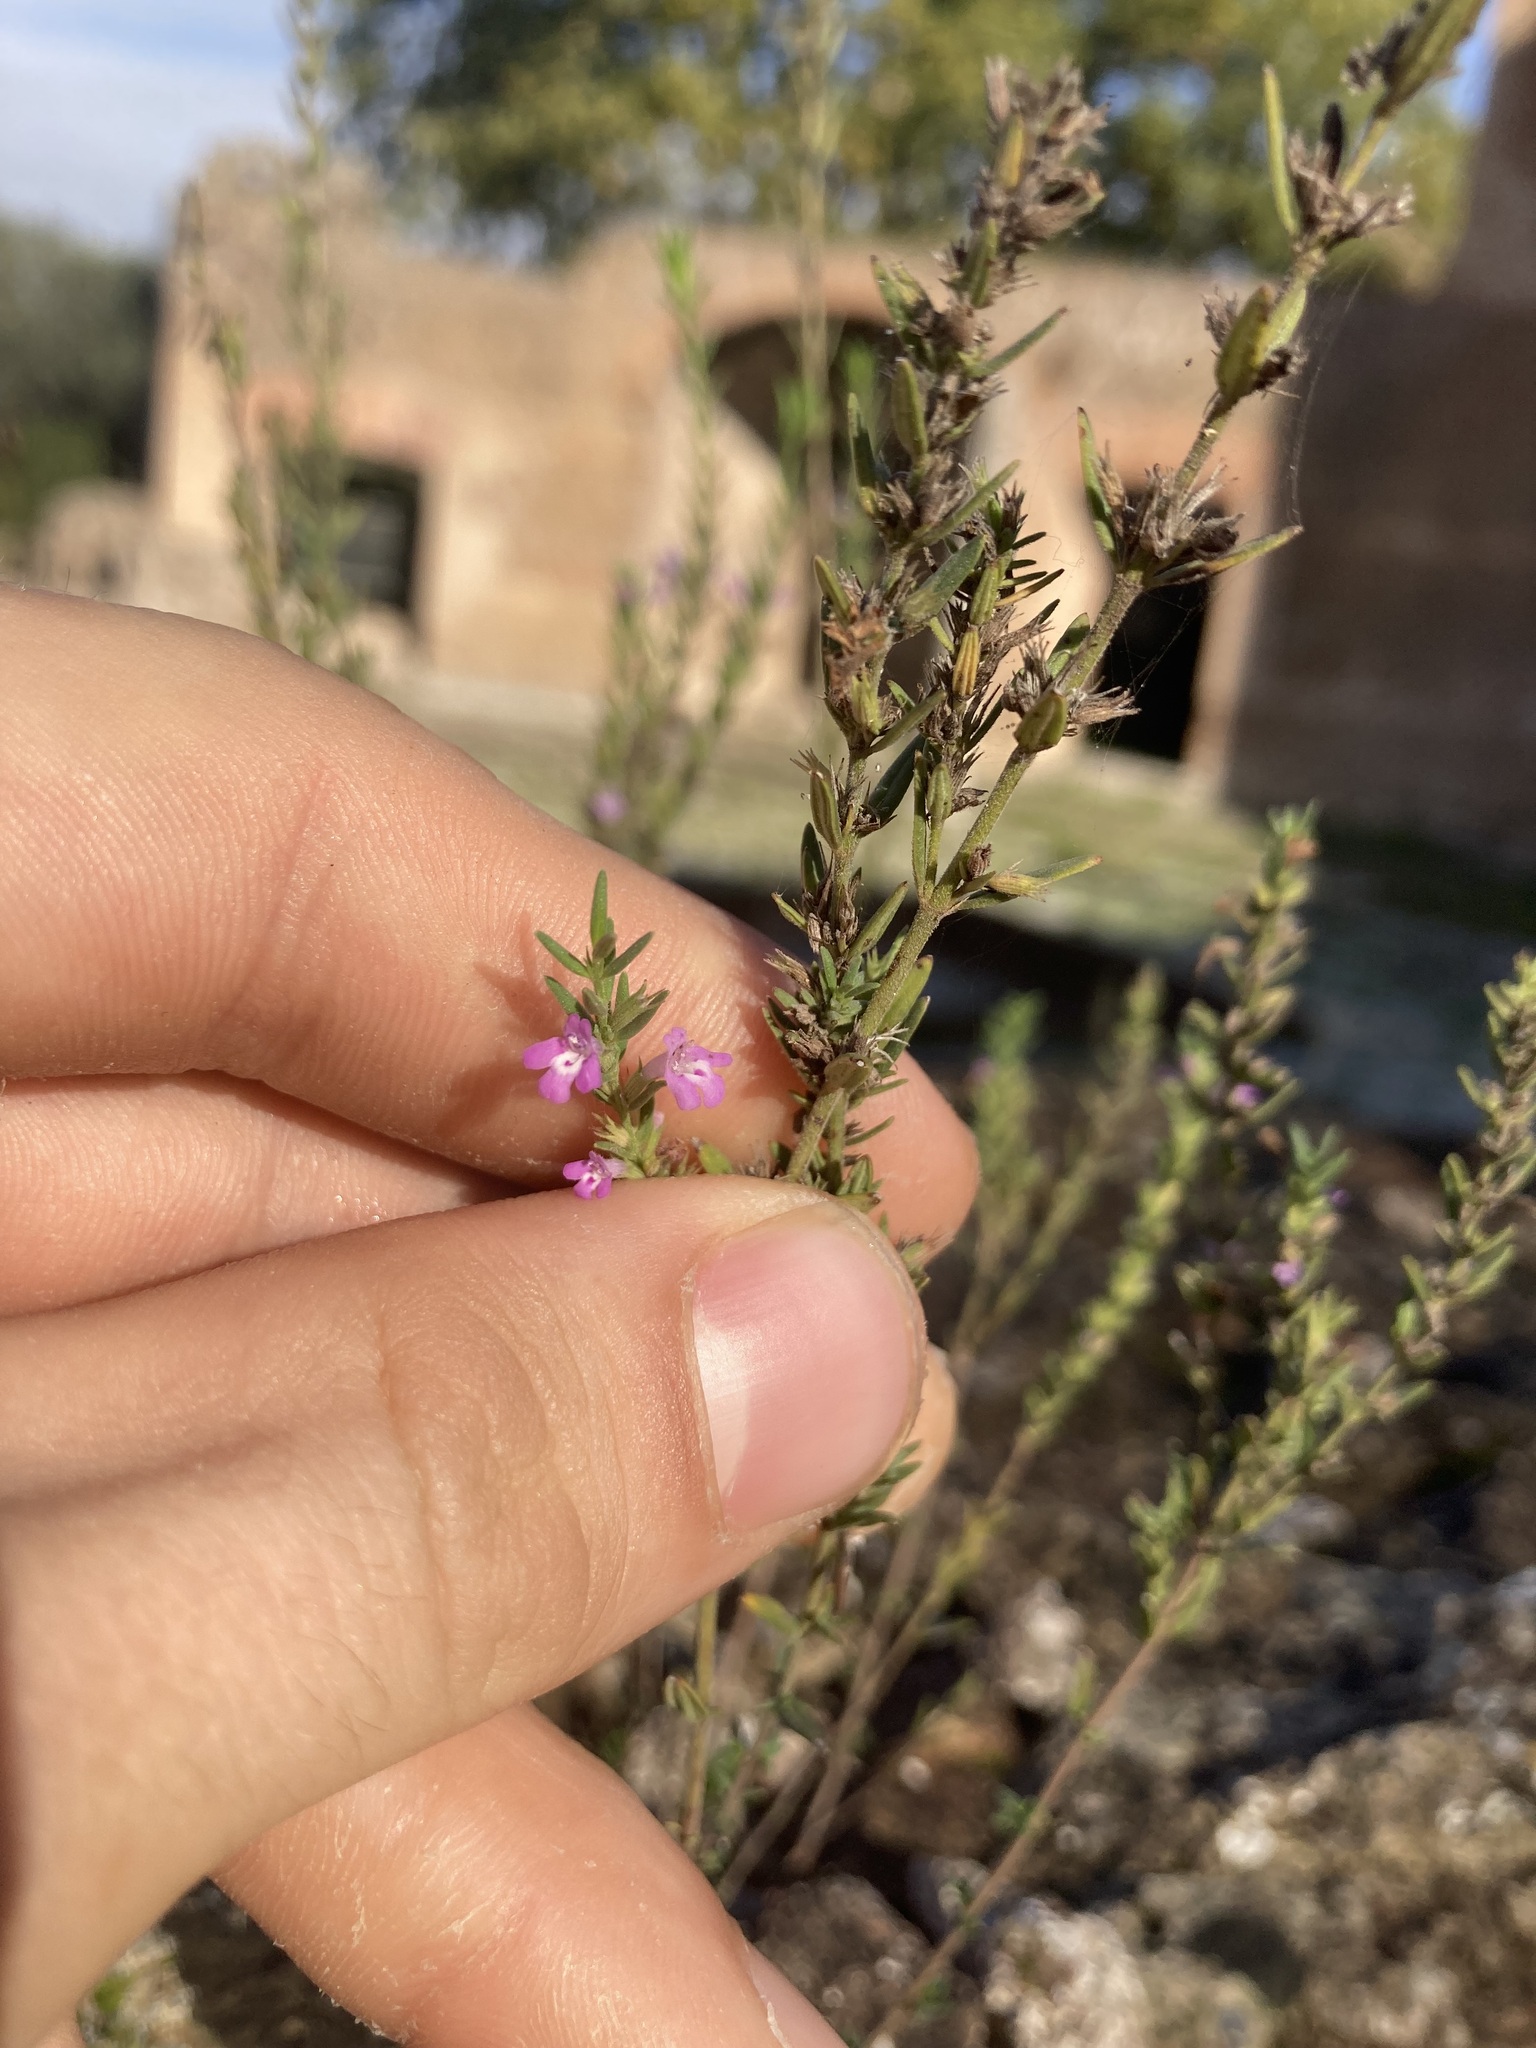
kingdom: Plantae
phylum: Tracheophyta
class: Magnoliopsida
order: Lamiales
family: Lamiaceae
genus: Micromeria
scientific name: Micromeria graeca
